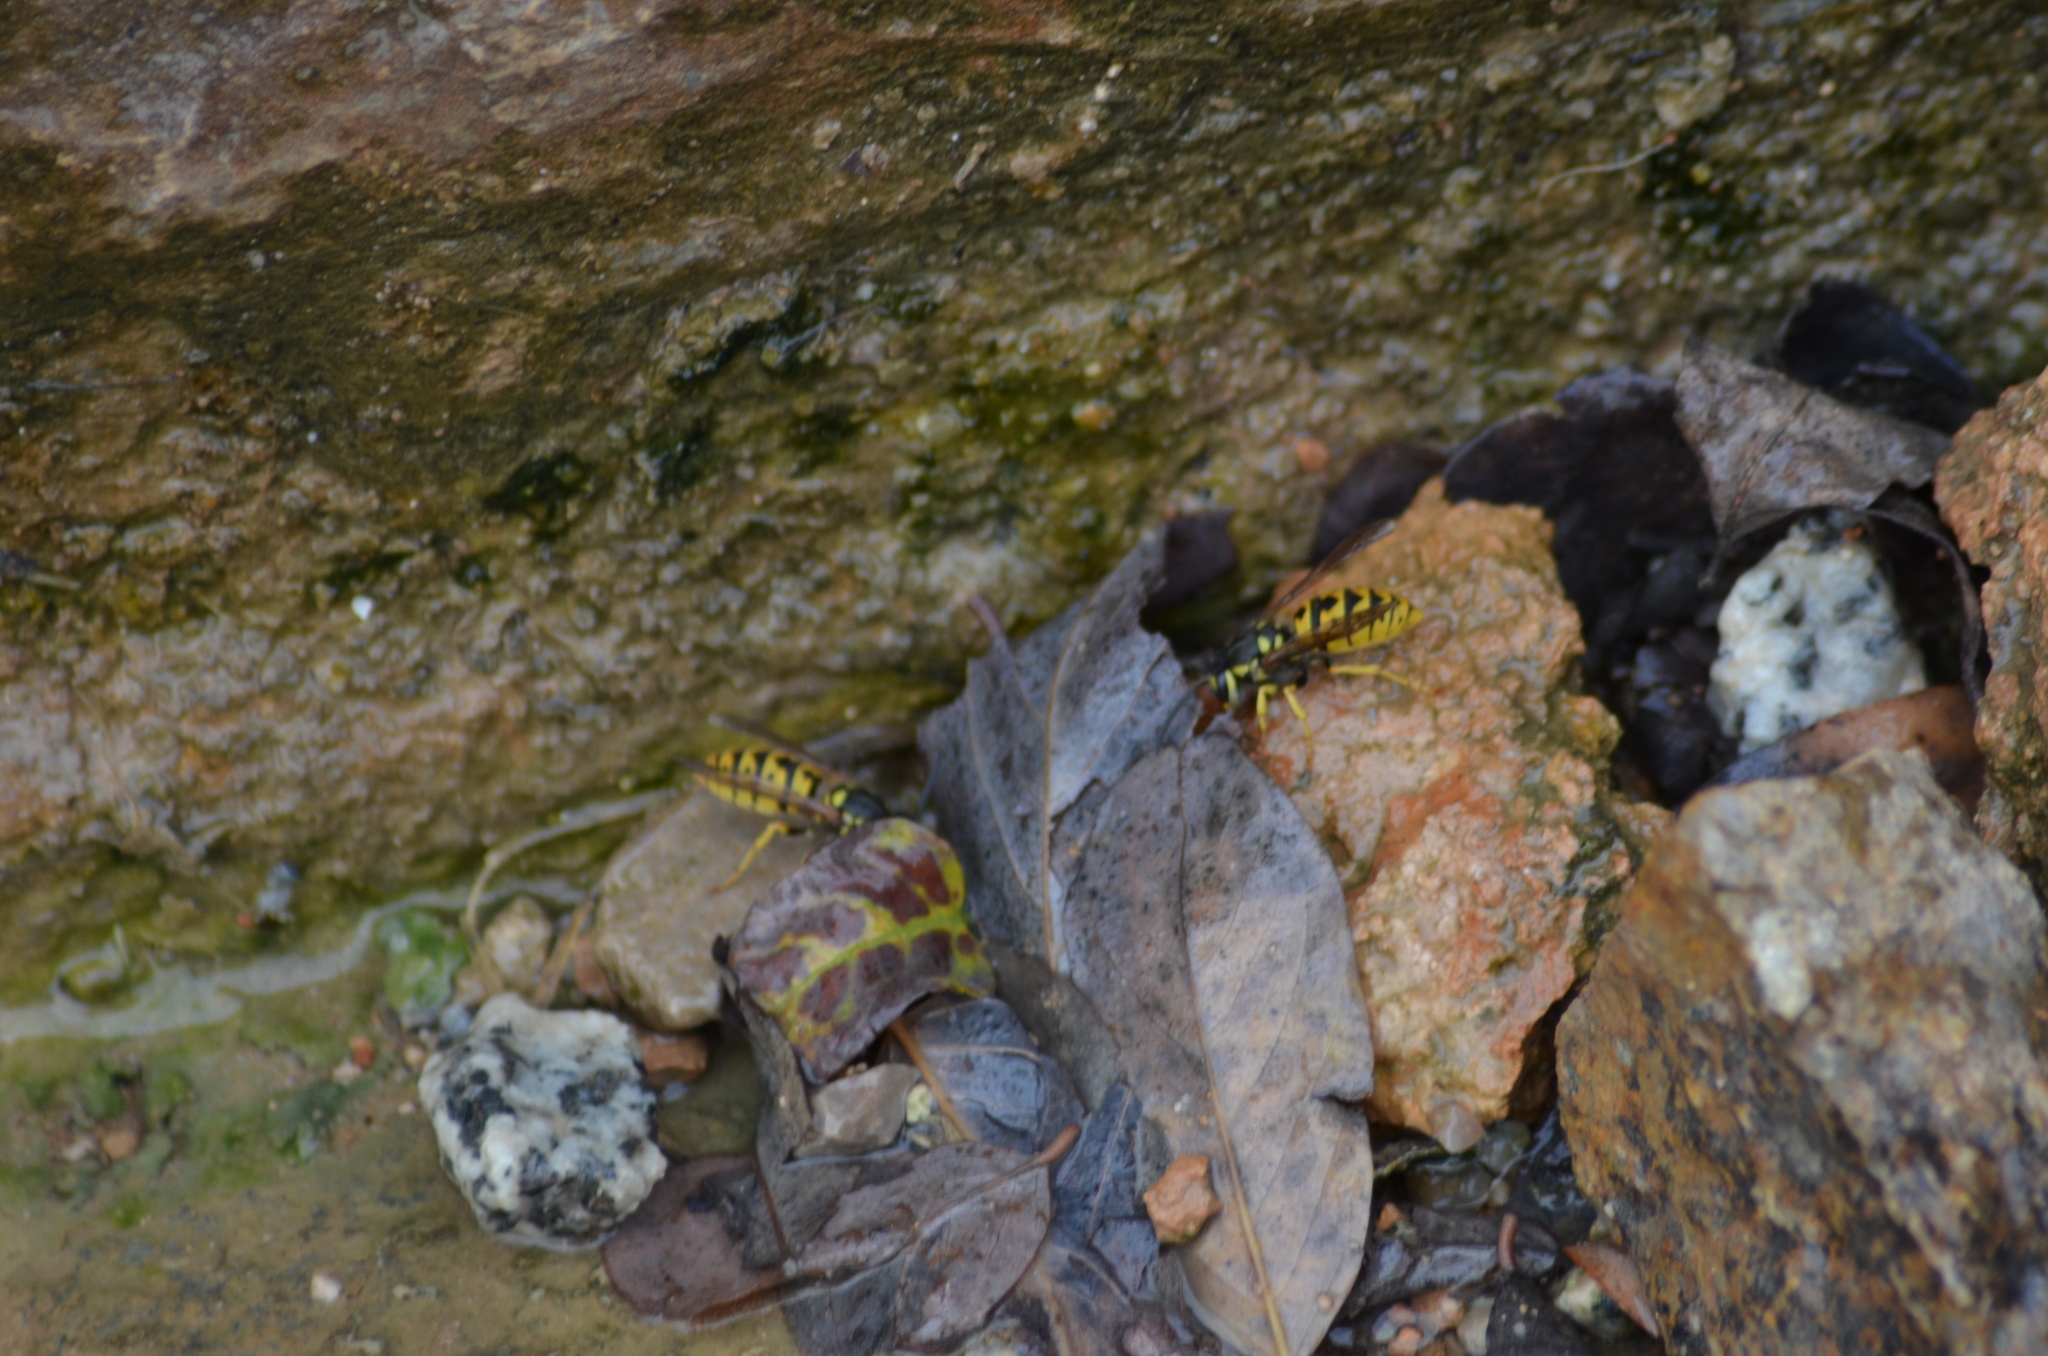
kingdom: Animalia
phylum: Arthropoda
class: Insecta
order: Hymenoptera
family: Vespidae
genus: Vespula
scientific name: Vespula germanica
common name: German wasp
